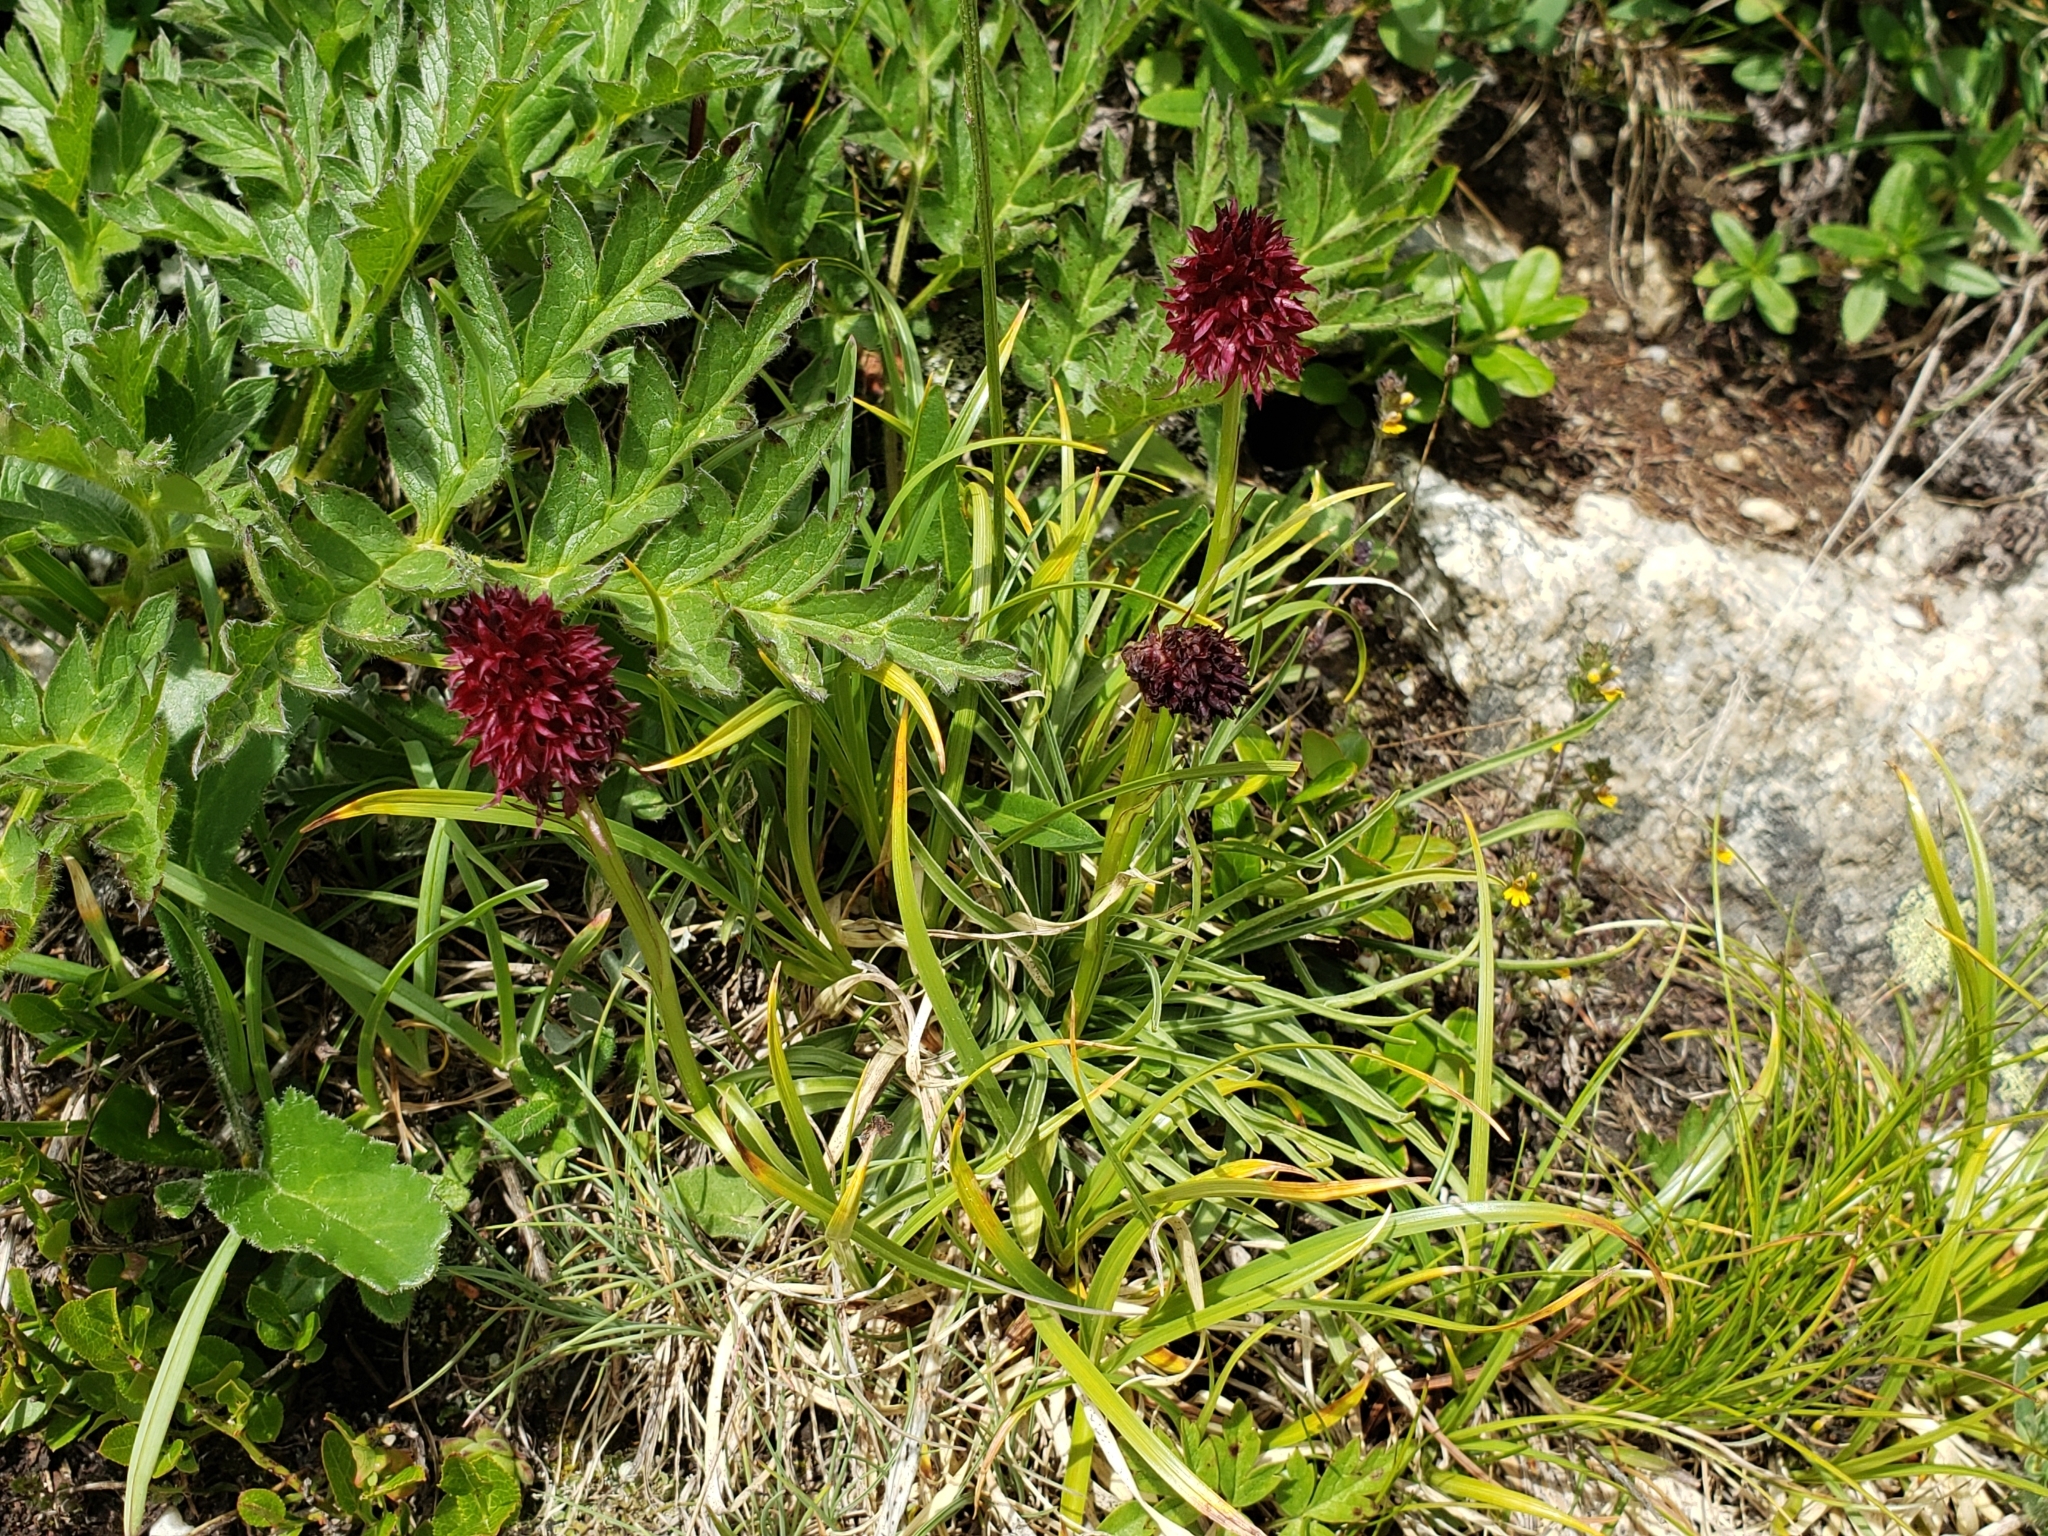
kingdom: Plantae
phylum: Tracheophyta
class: Liliopsida
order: Asparagales
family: Orchidaceae
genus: Gymnadenia
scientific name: Gymnadenia rhellicani
